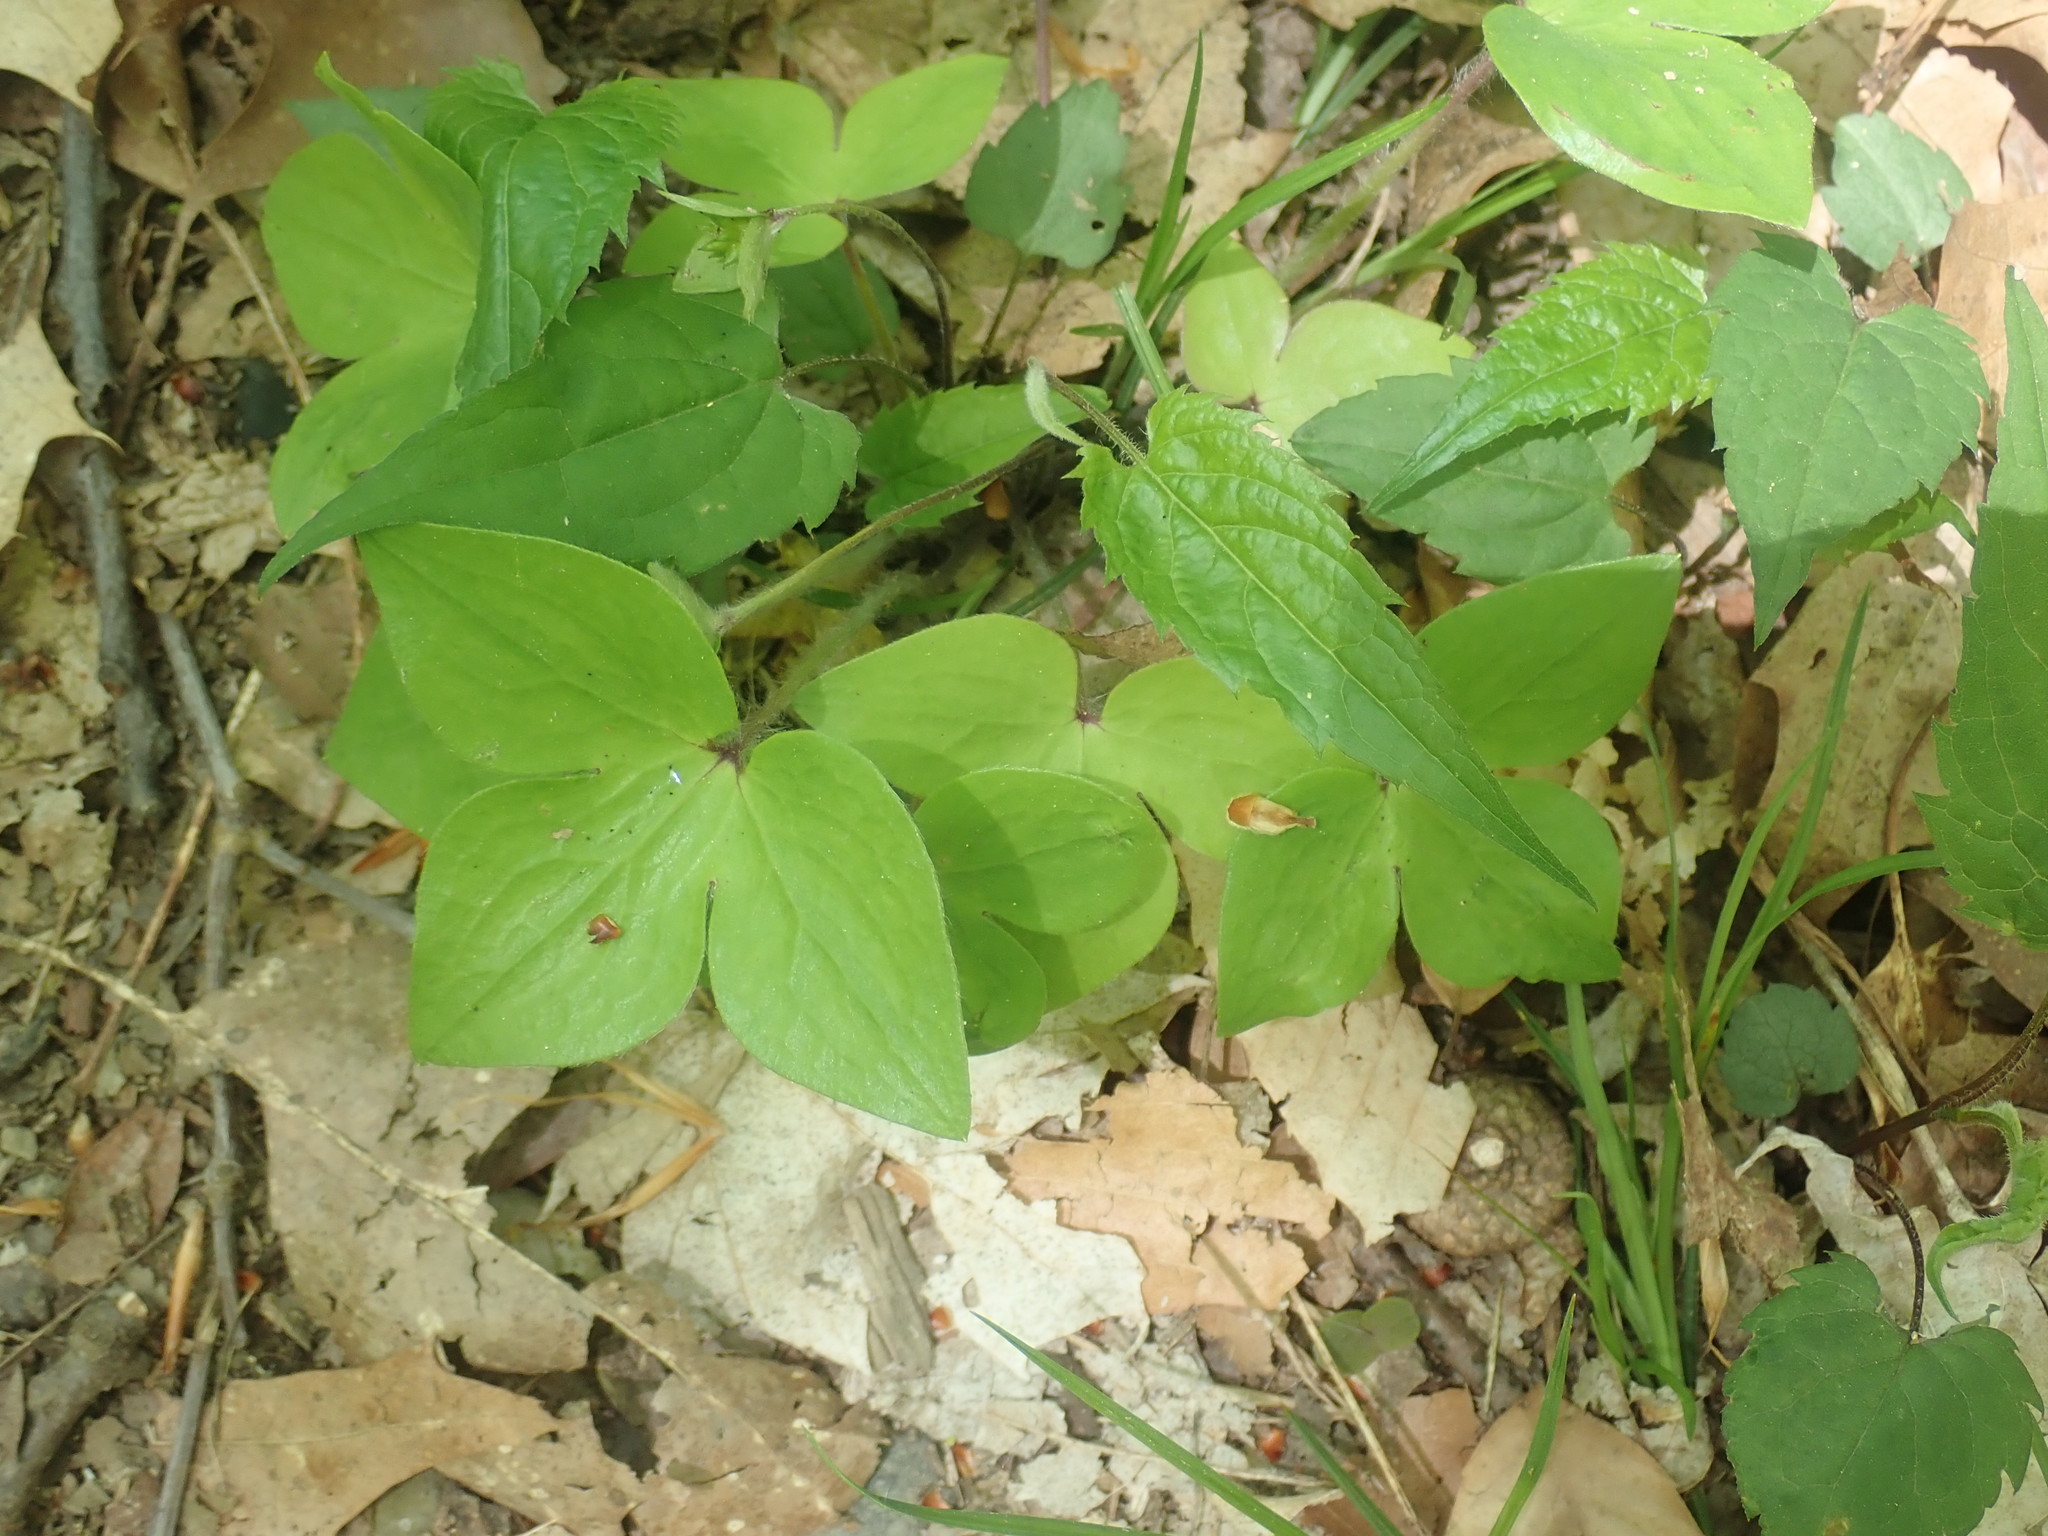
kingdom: Plantae
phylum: Tracheophyta
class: Magnoliopsida
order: Ranunculales
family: Ranunculaceae
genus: Hepatica
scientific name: Hepatica acutiloba
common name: Sharp-lobed hepatica
